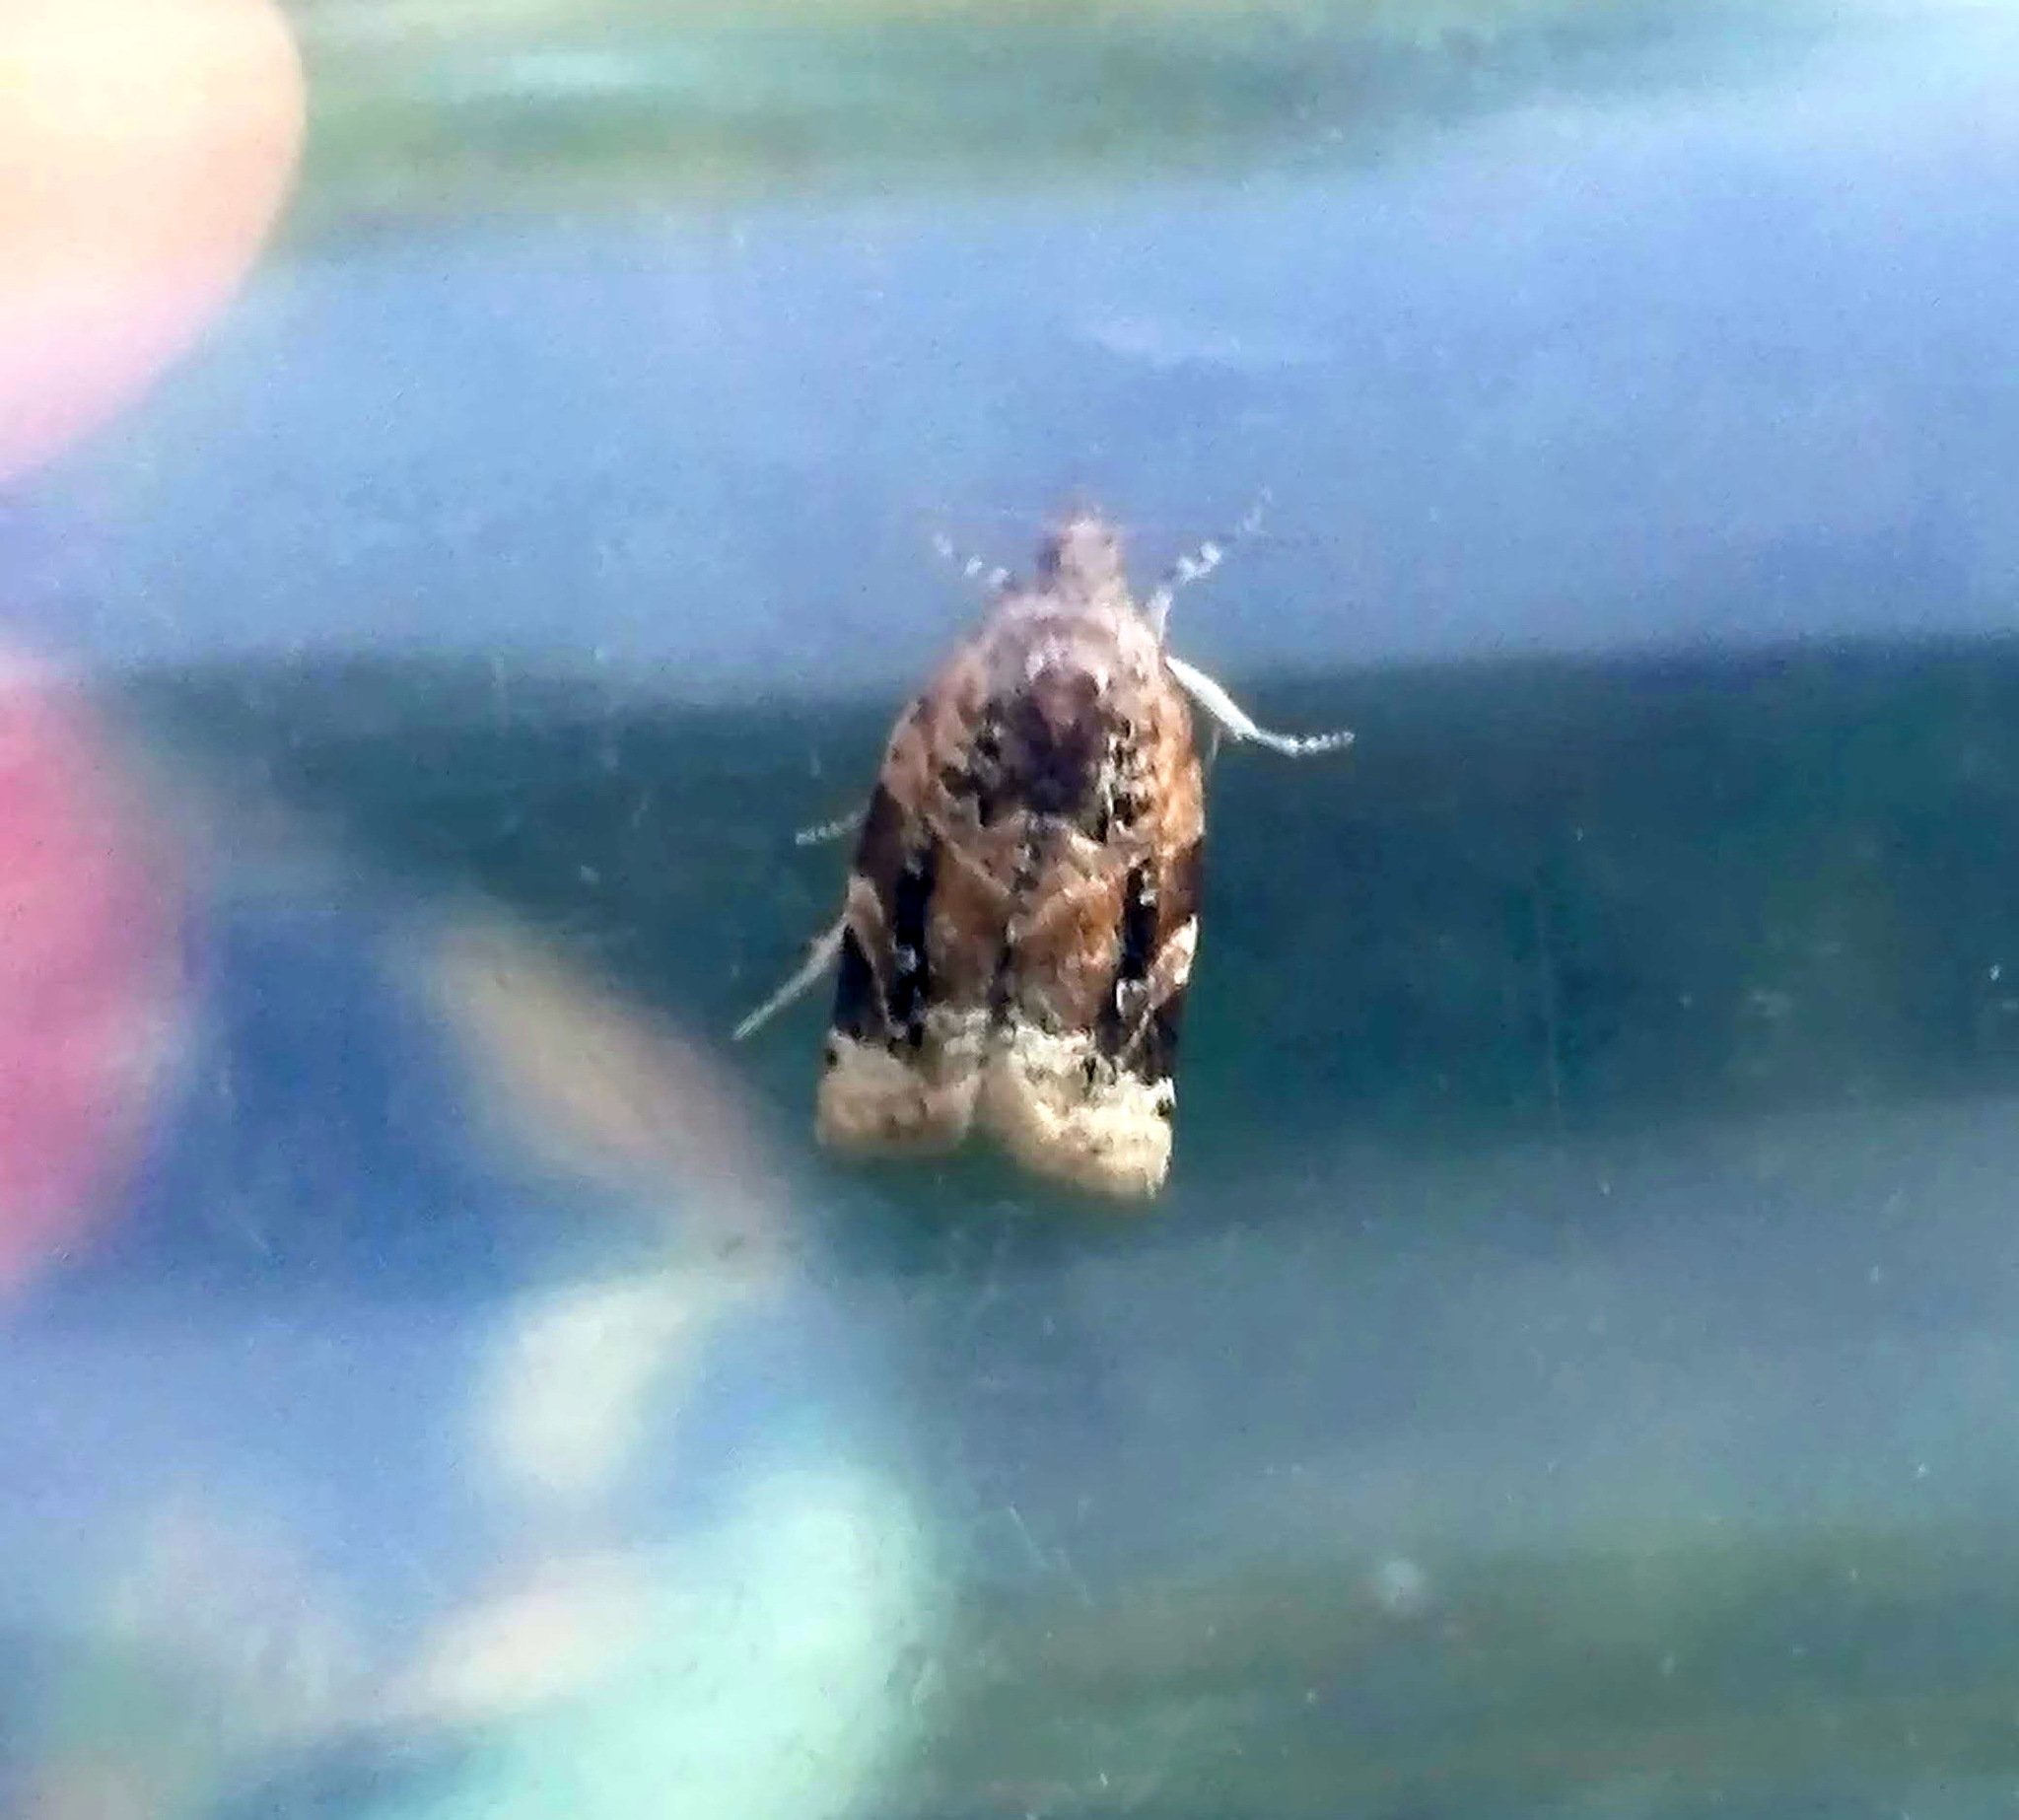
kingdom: Animalia
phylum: Arthropoda
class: Insecta
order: Lepidoptera
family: Tortricidae
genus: Argyrotaenia
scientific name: Argyrotaenia velutinana
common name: Red-banded leafroller moth
